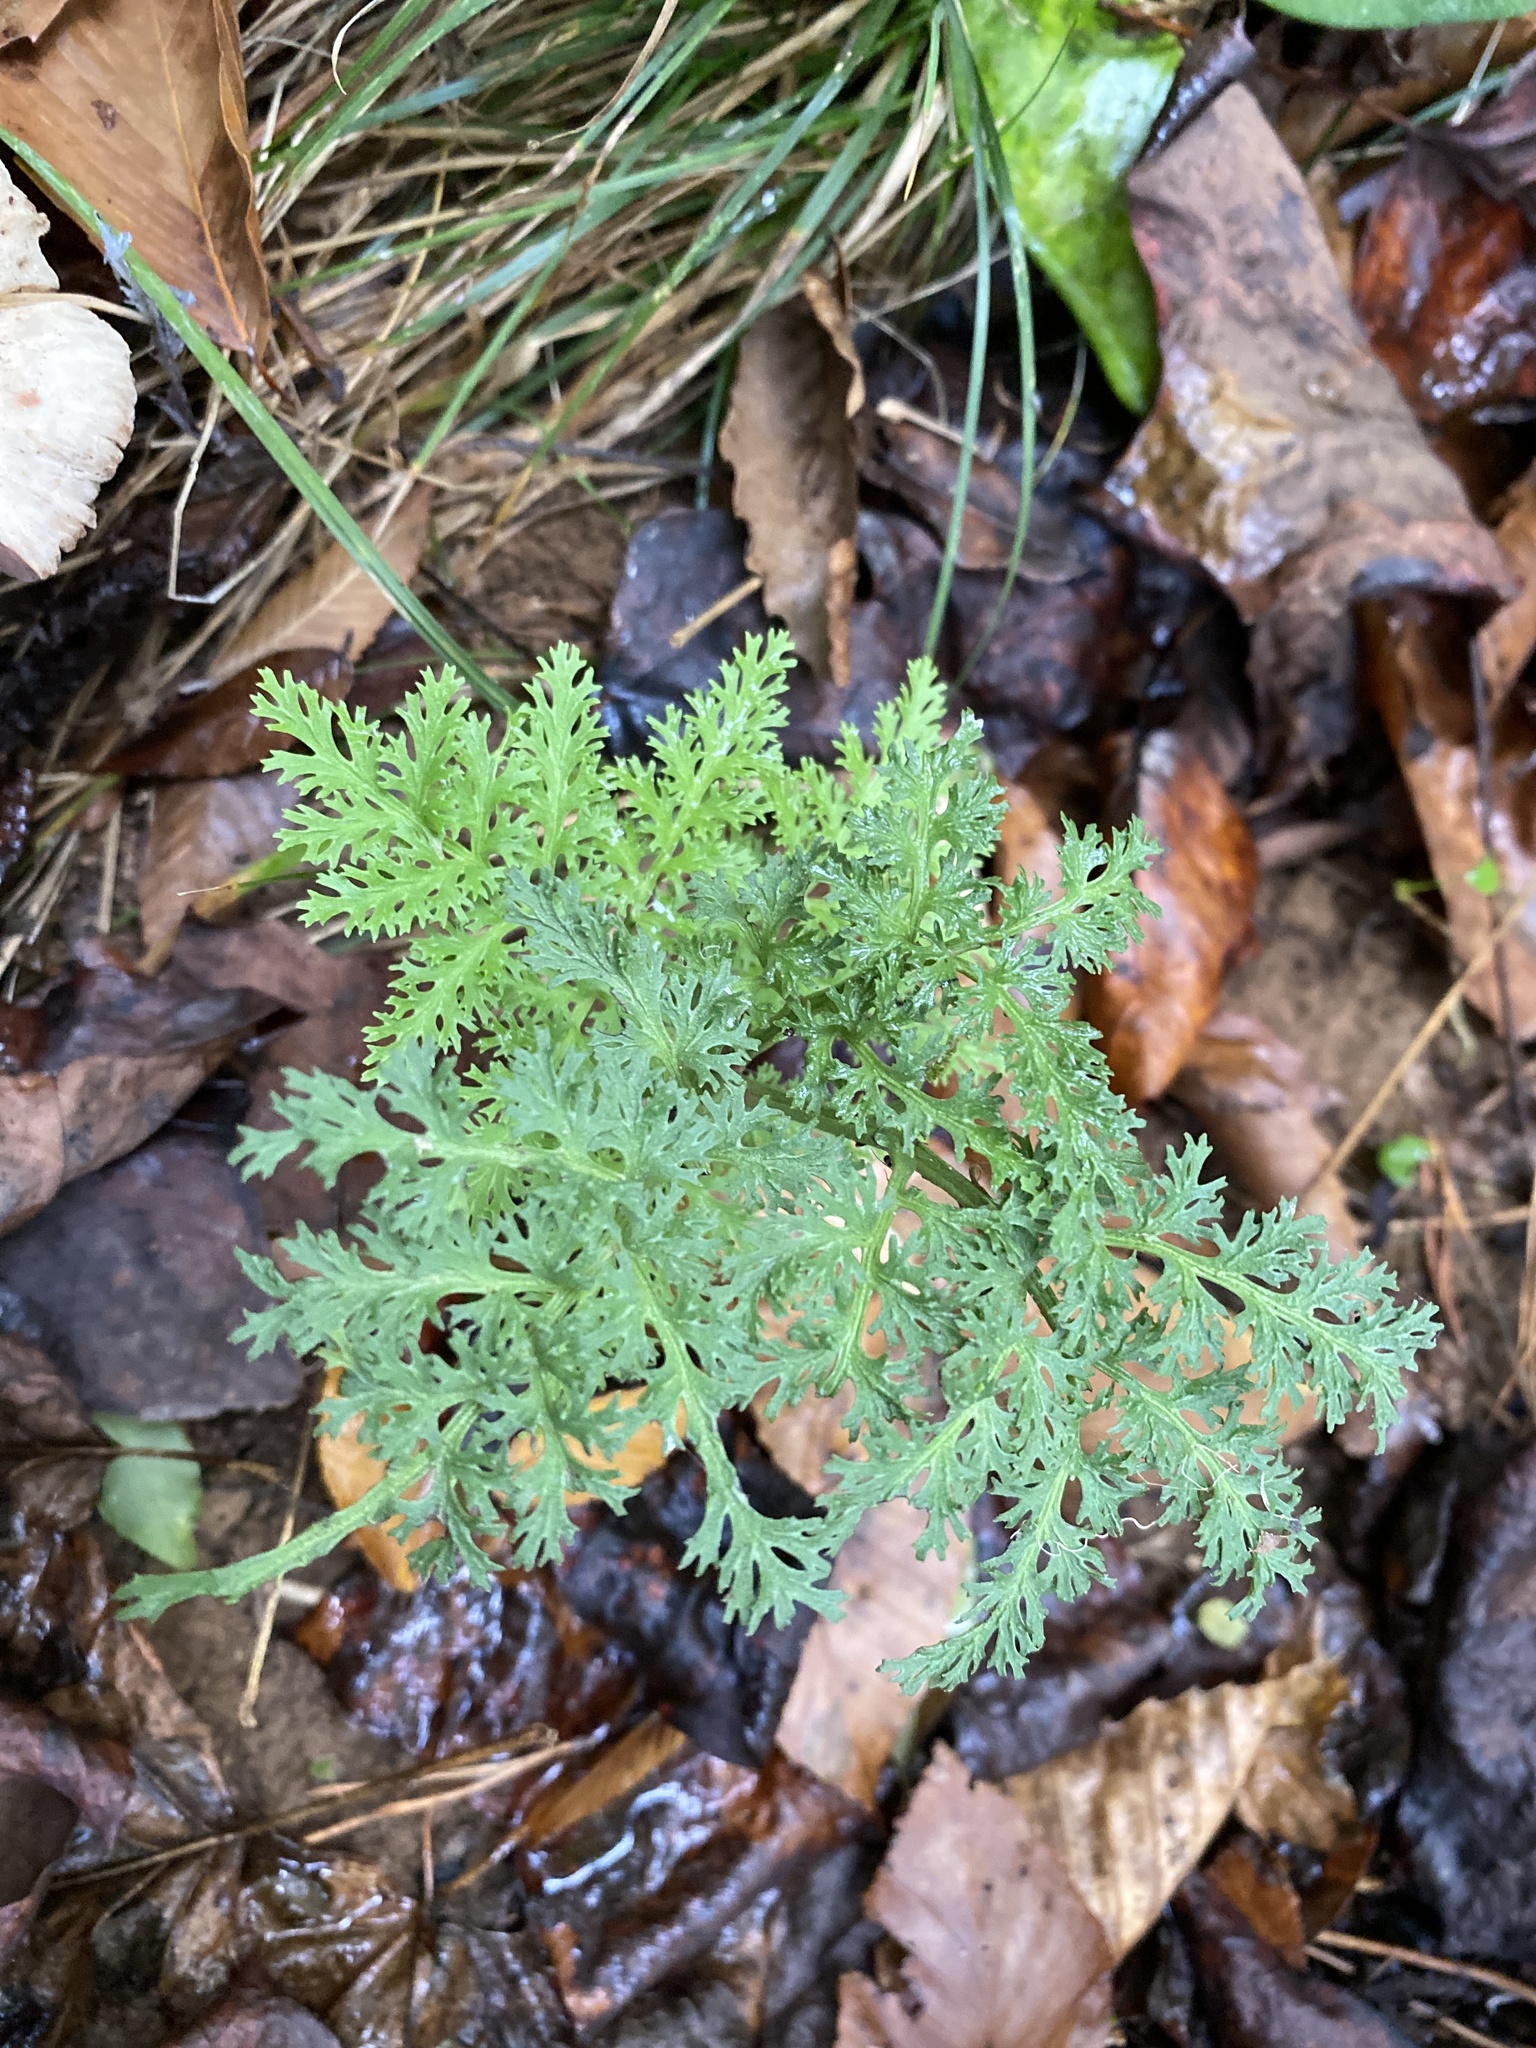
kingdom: Plantae
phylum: Tracheophyta
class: Polypodiopsida
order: Ophioglossales
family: Ophioglossaceae
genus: Sceptridium
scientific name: Sceptridium dissectum
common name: Cut-leaved grapefern
